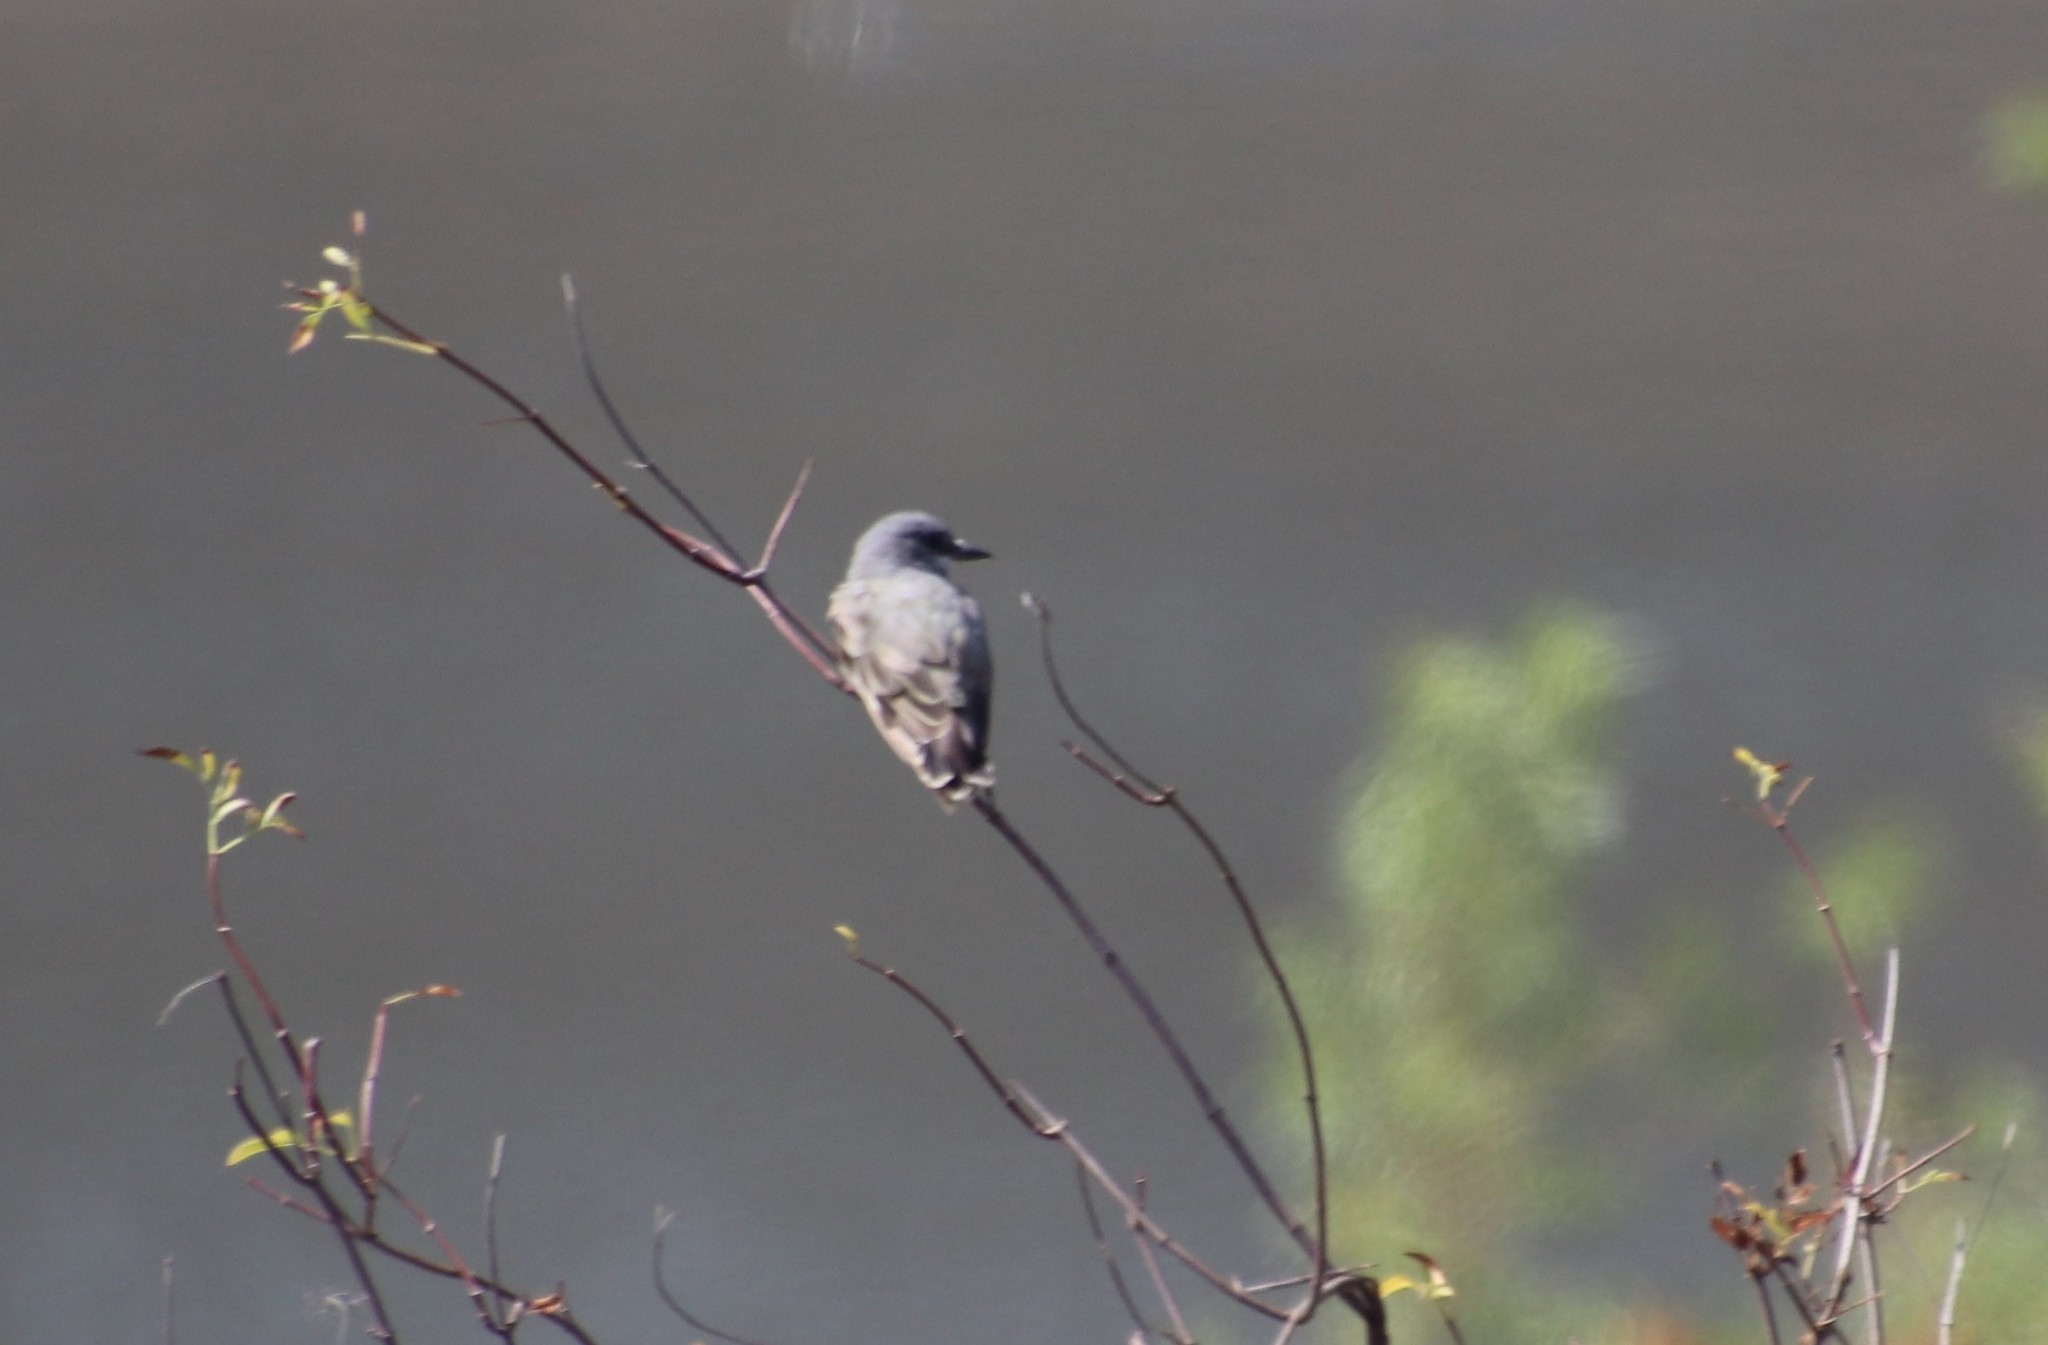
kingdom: Animalia
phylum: Chordata
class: Aves
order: Passeriformes
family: Tyrannidae
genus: Tyrannus
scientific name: Tyrannus vociferans
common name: Cassin's kingbird
